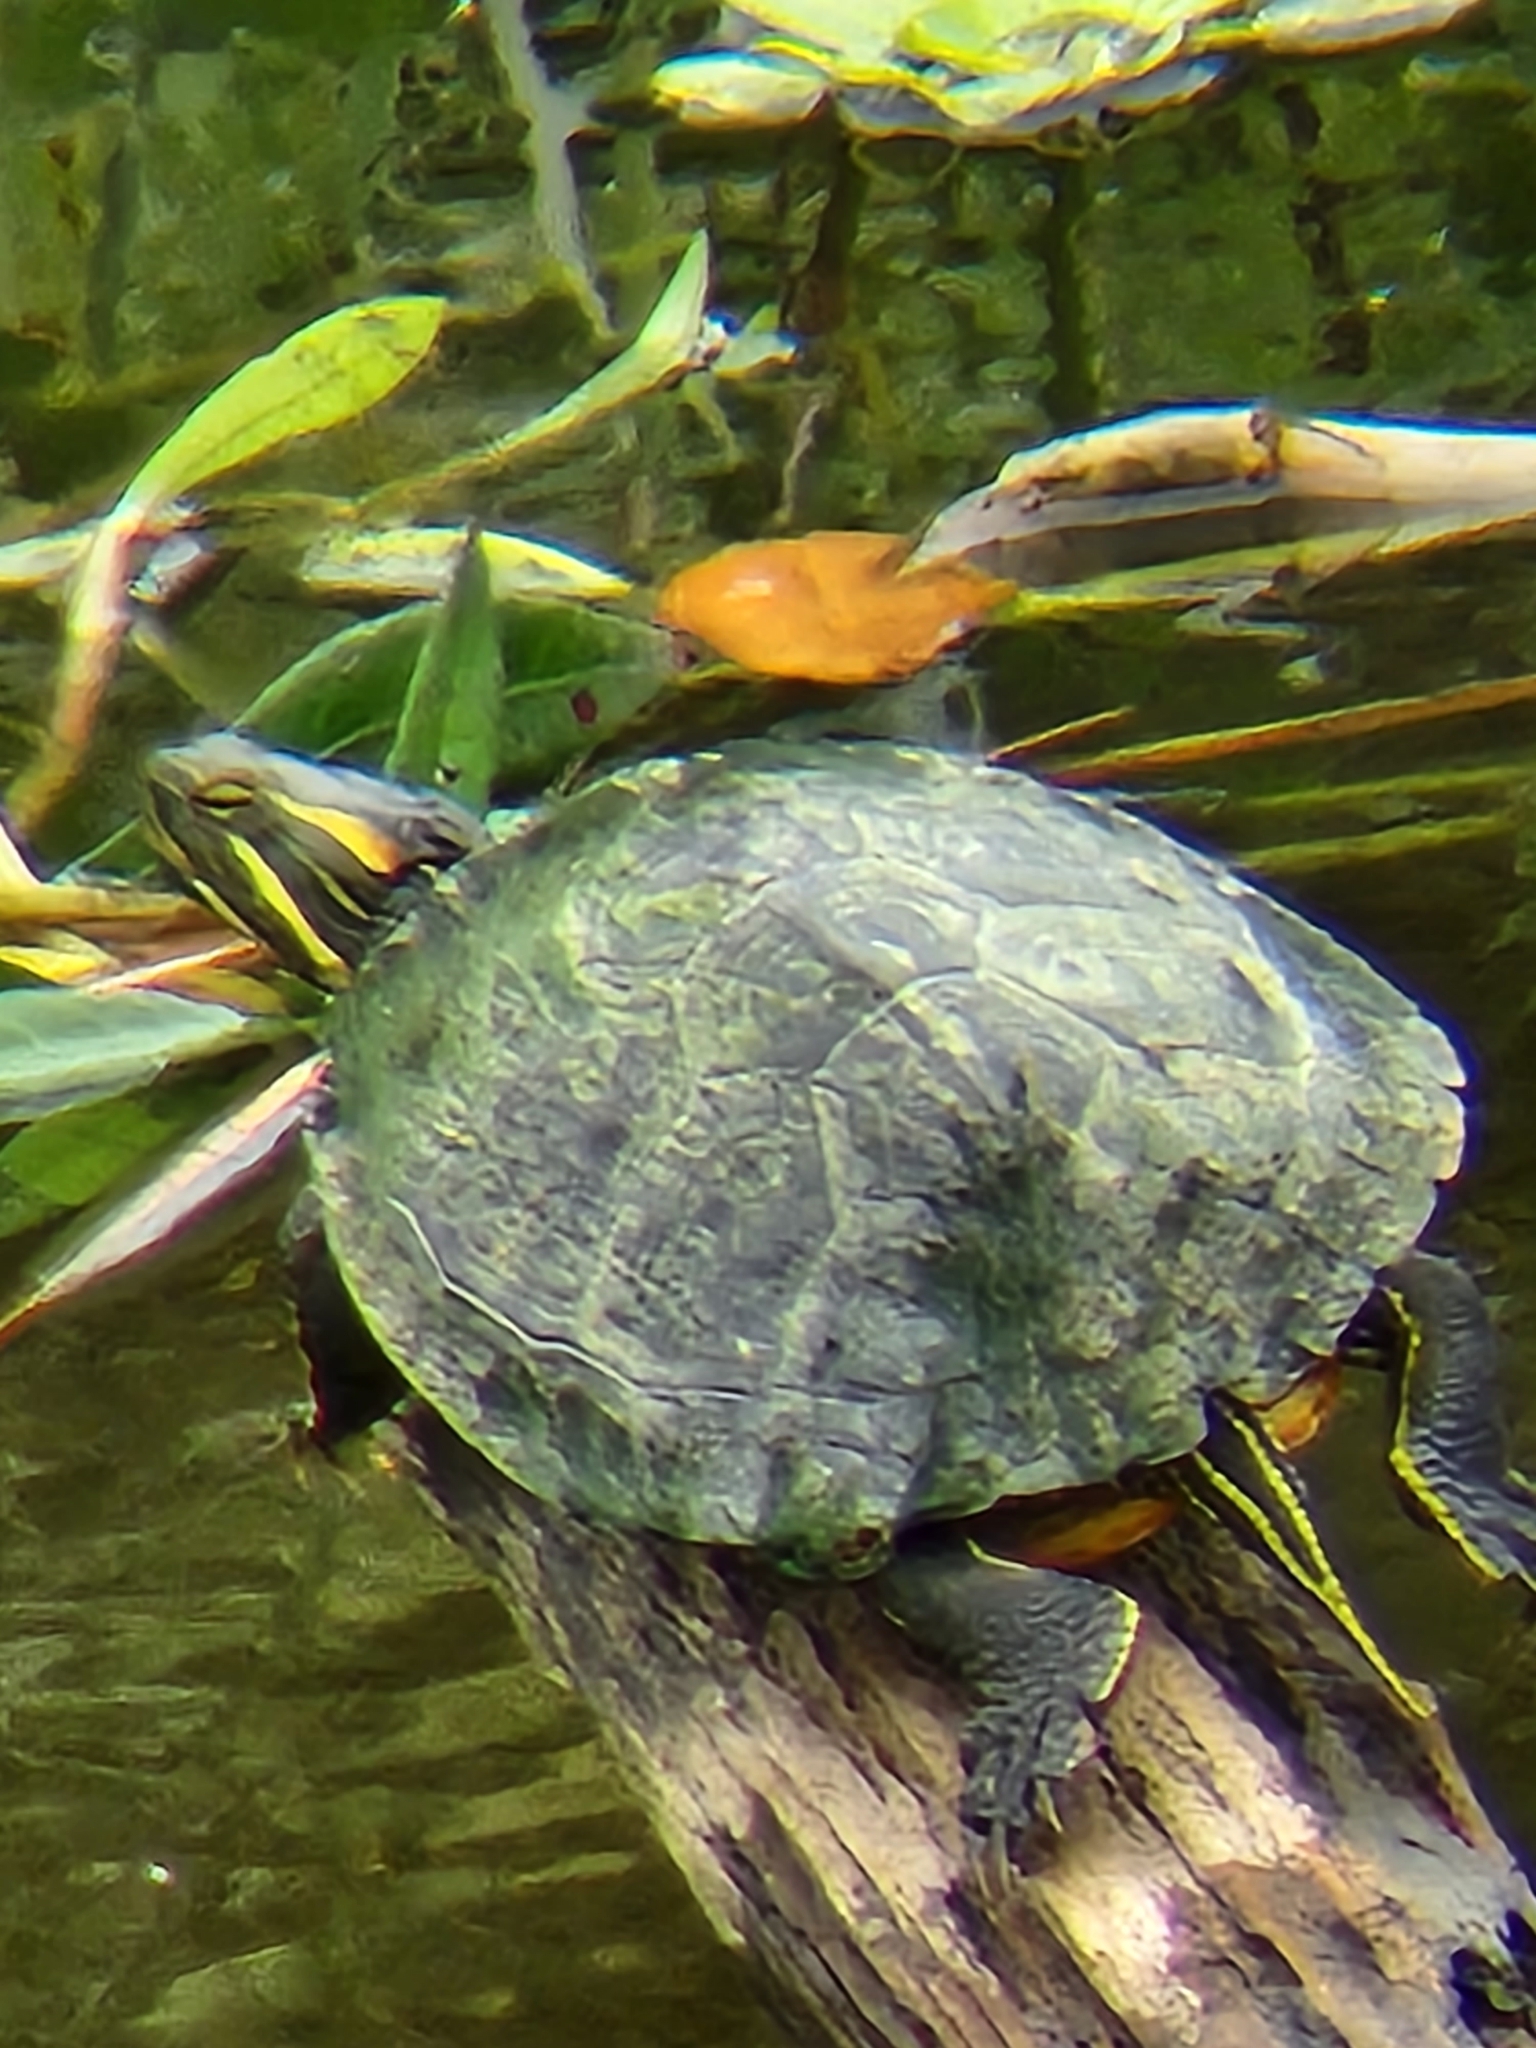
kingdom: Animalia
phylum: Chordata
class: Testudines
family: Emydidae
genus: Trachemys
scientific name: Trachemys scripta
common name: Slider
